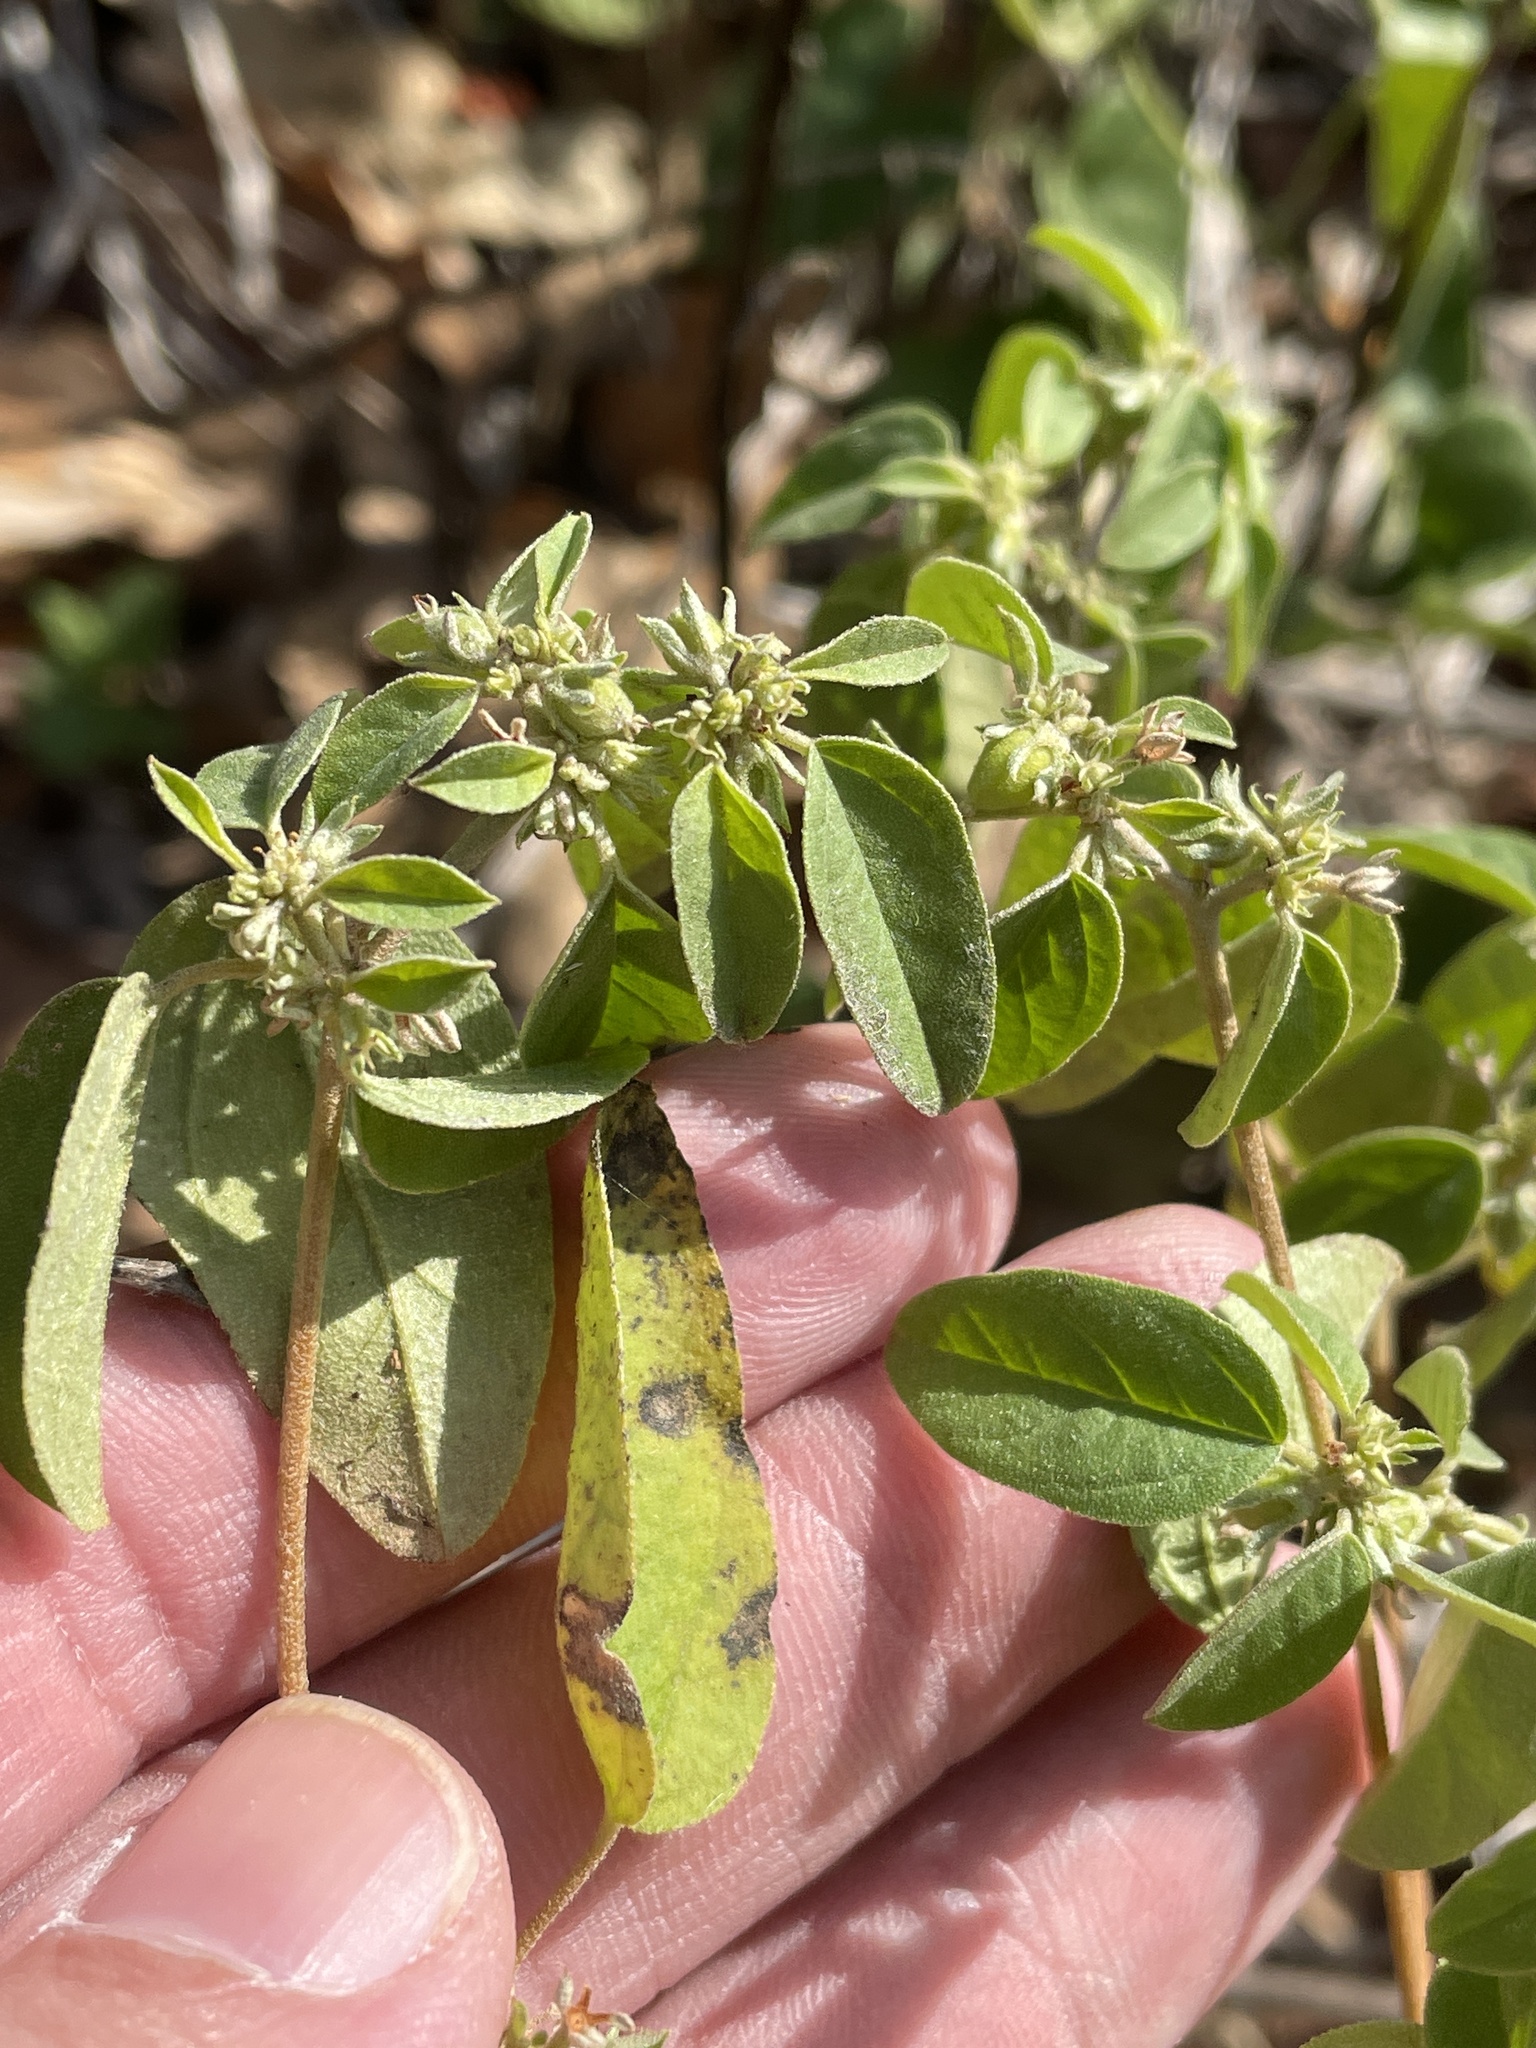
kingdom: Plantae
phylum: Tracheophyta
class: Magnoliopsida
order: Malpighiales
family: Euphorbiaceae
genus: Croton
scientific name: Croton monanthogynus
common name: One-seed croton
